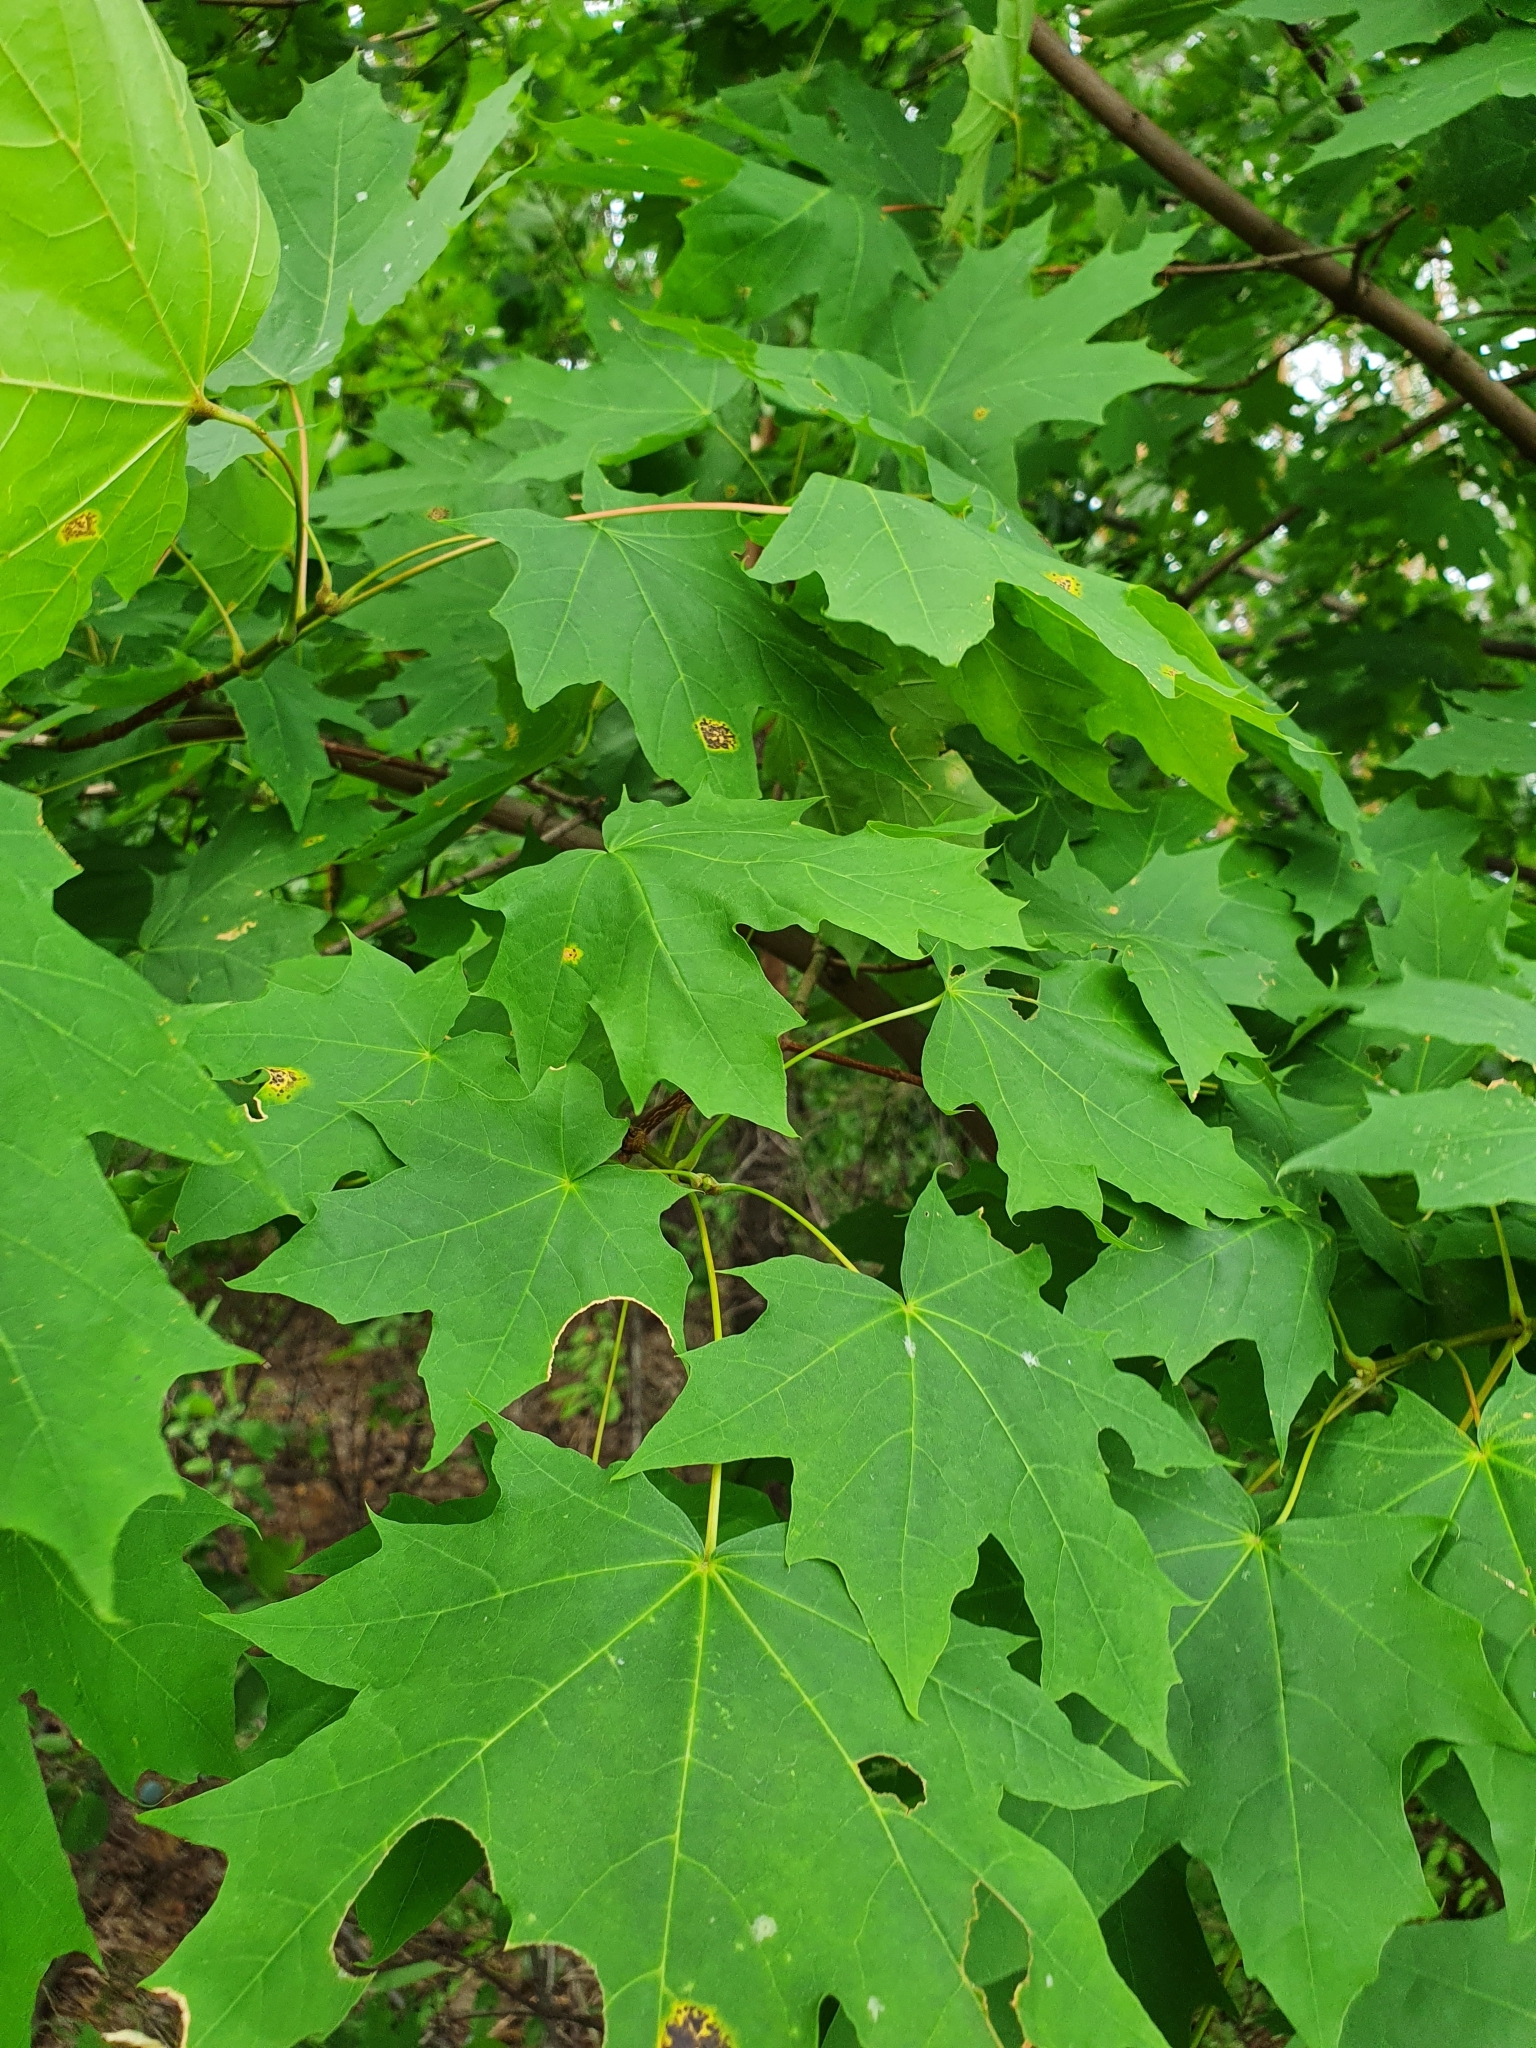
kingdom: Plantae
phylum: Tracheophyta
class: Magnoliopsida
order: Sapindales
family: Sapindaceae
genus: Acer
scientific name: Acer platanoides
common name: Norway maple
